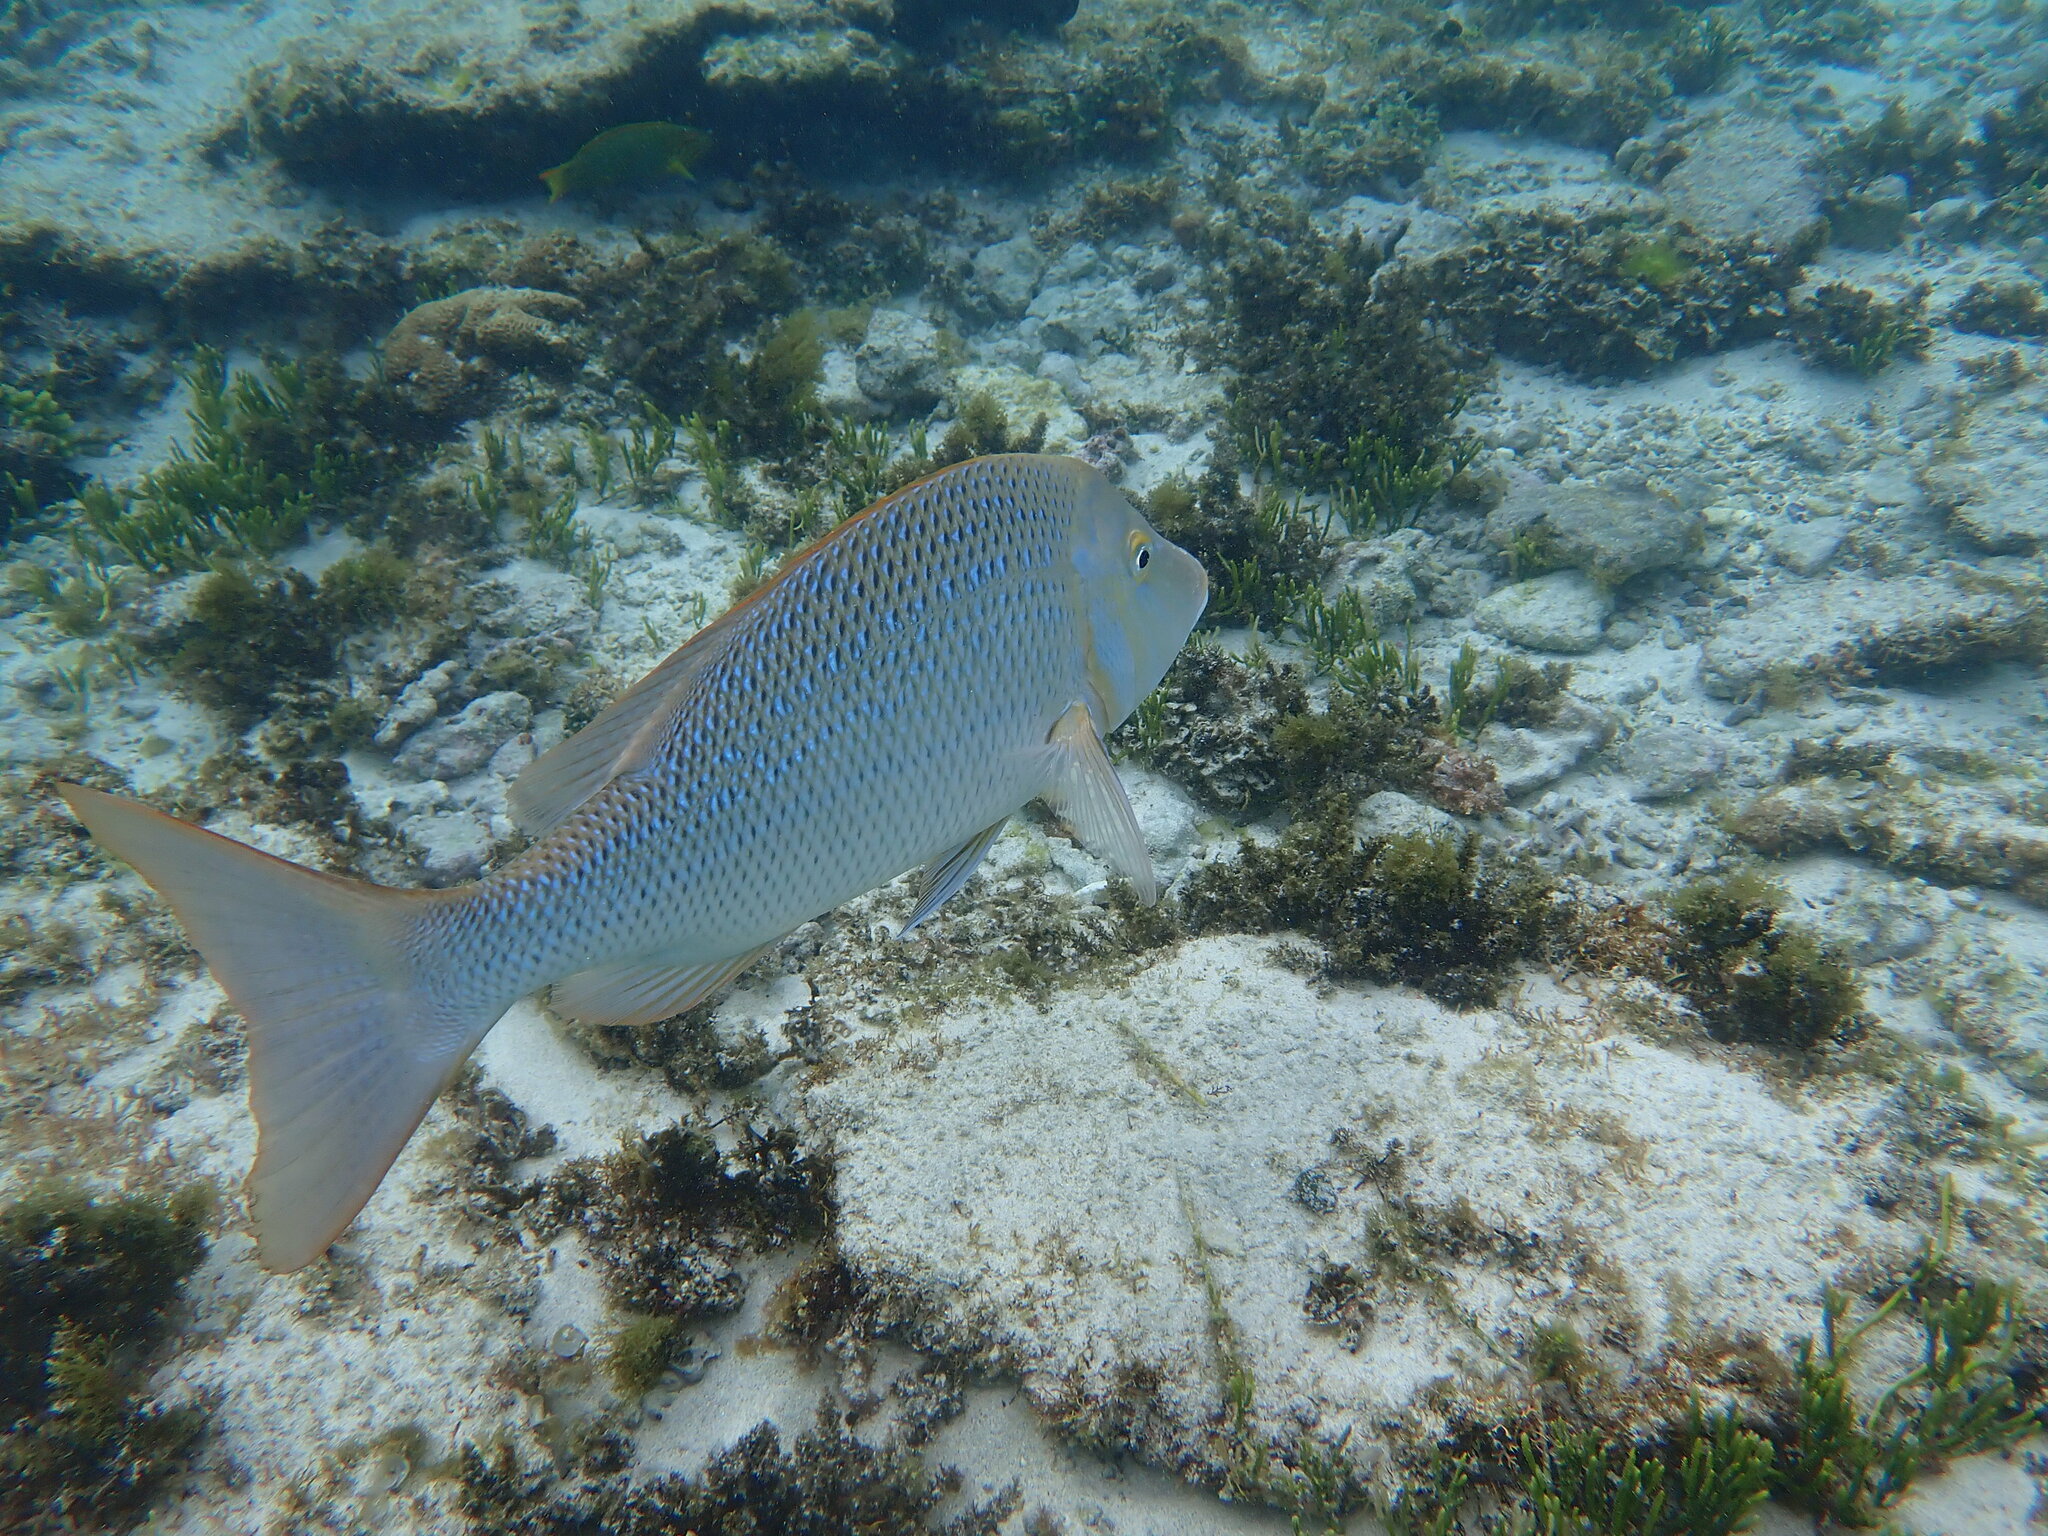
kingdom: Animalia
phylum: Chordata
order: Perciformes
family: Lethrinidae
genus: Lethrinus
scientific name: Lethrinus nebulosus
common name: Spangled emperor
